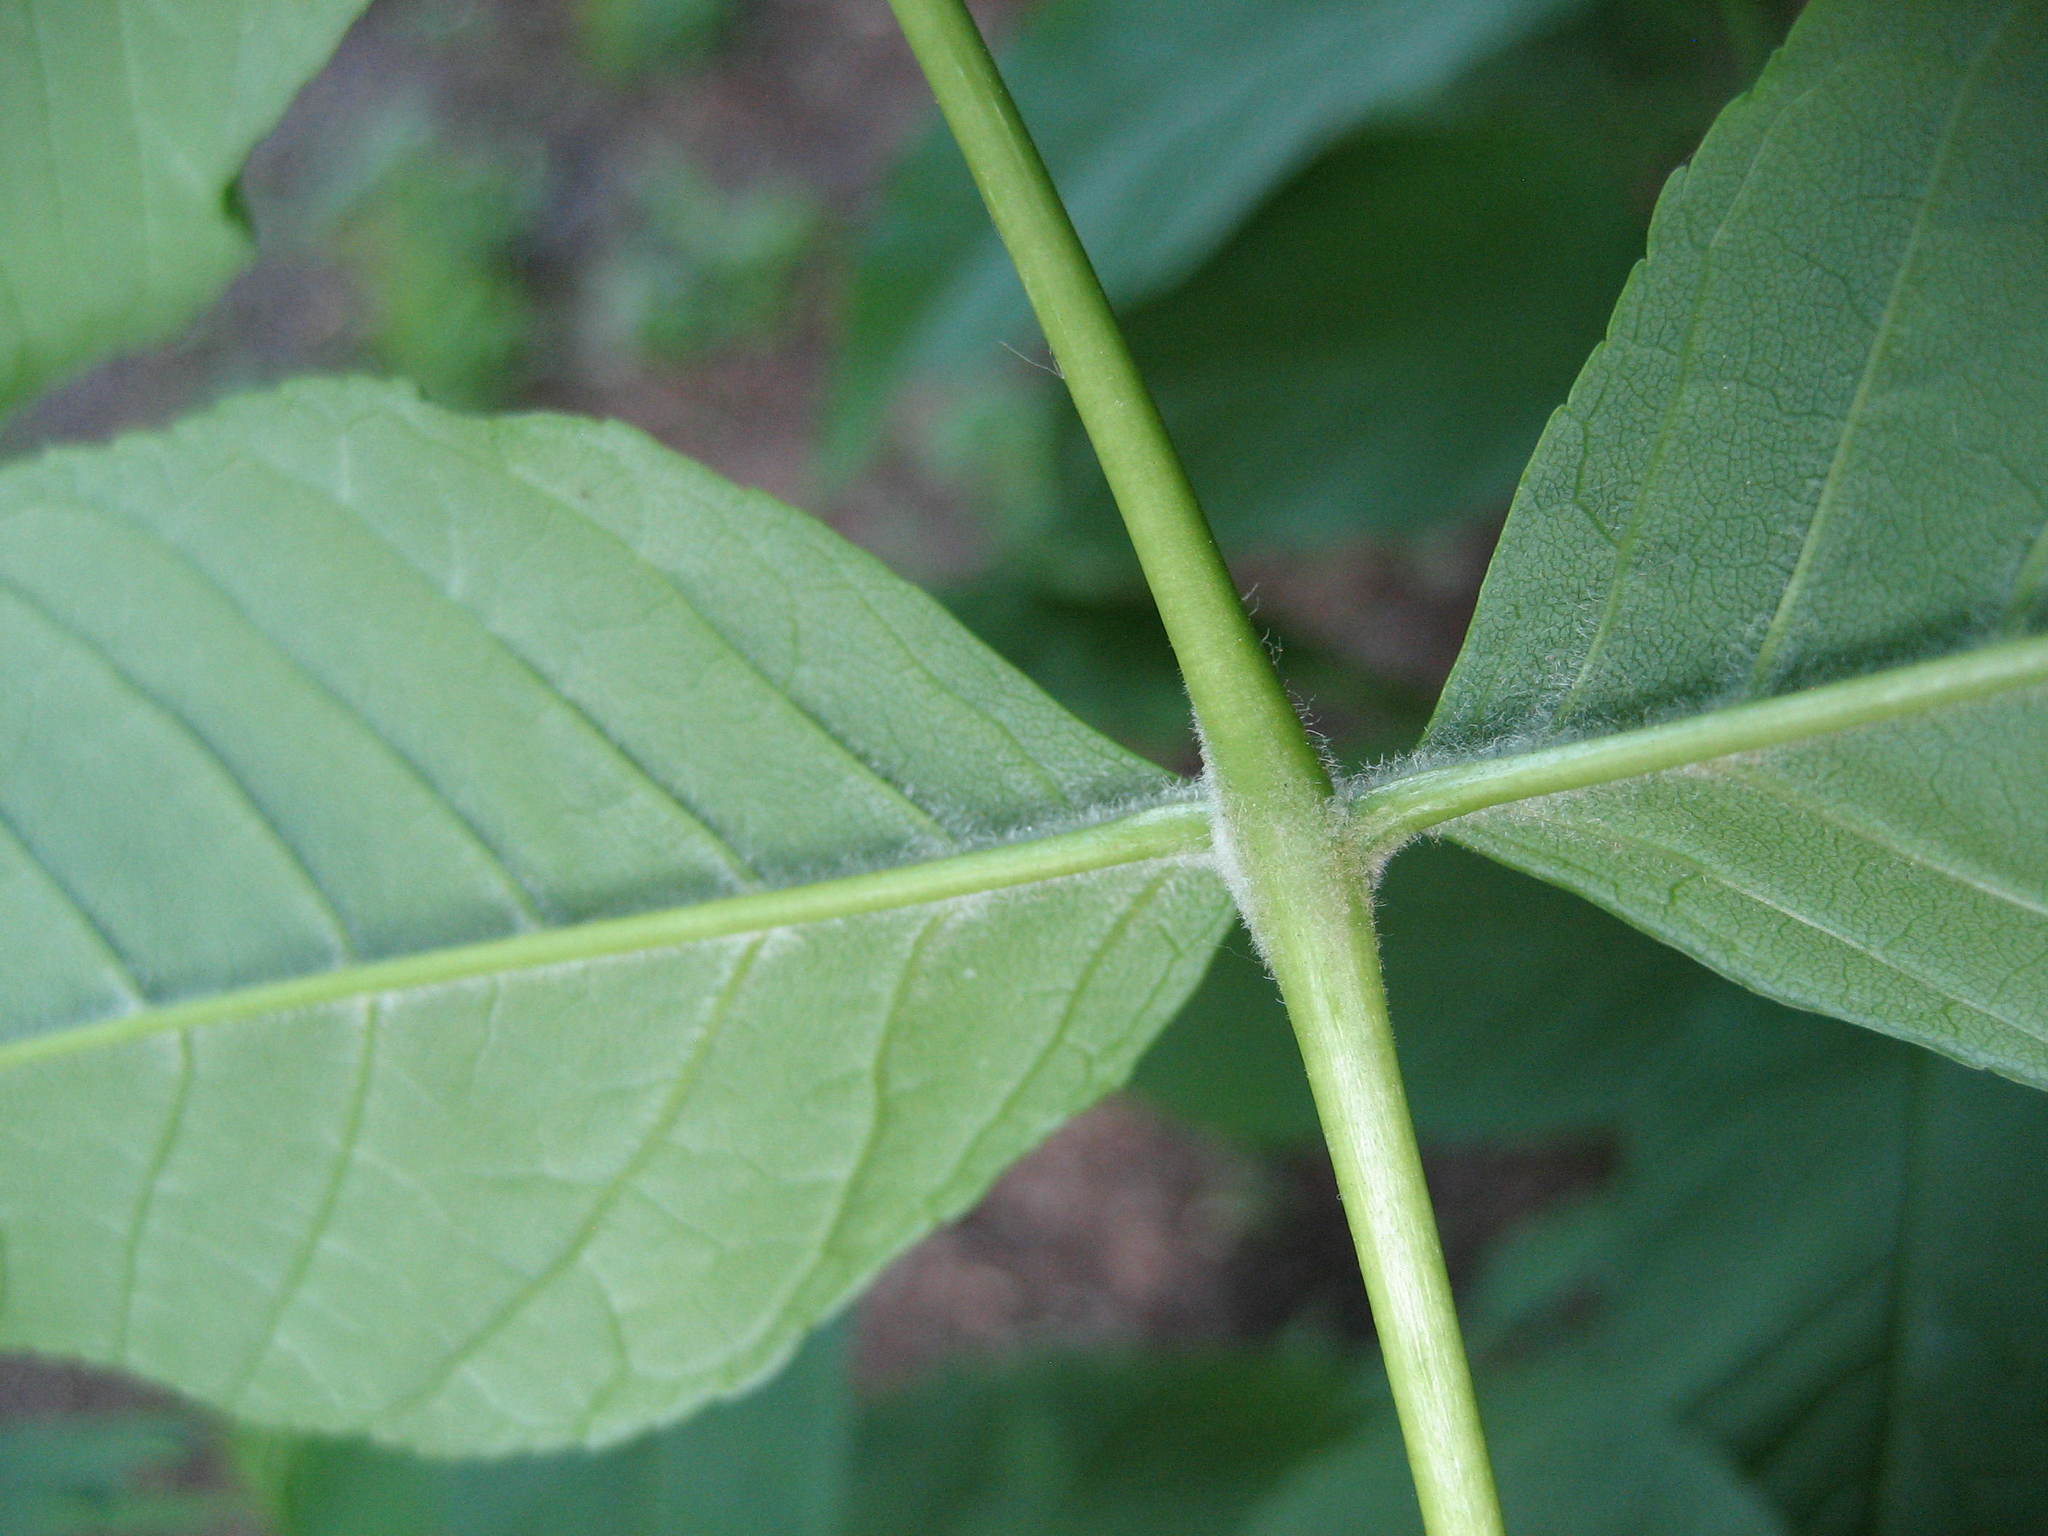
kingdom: Plantae
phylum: Tracheophyta
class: Magnoliopsida
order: Lamiales
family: Oleaceae
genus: Fraxinus
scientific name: Fraxinus nigra
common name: Black ash
